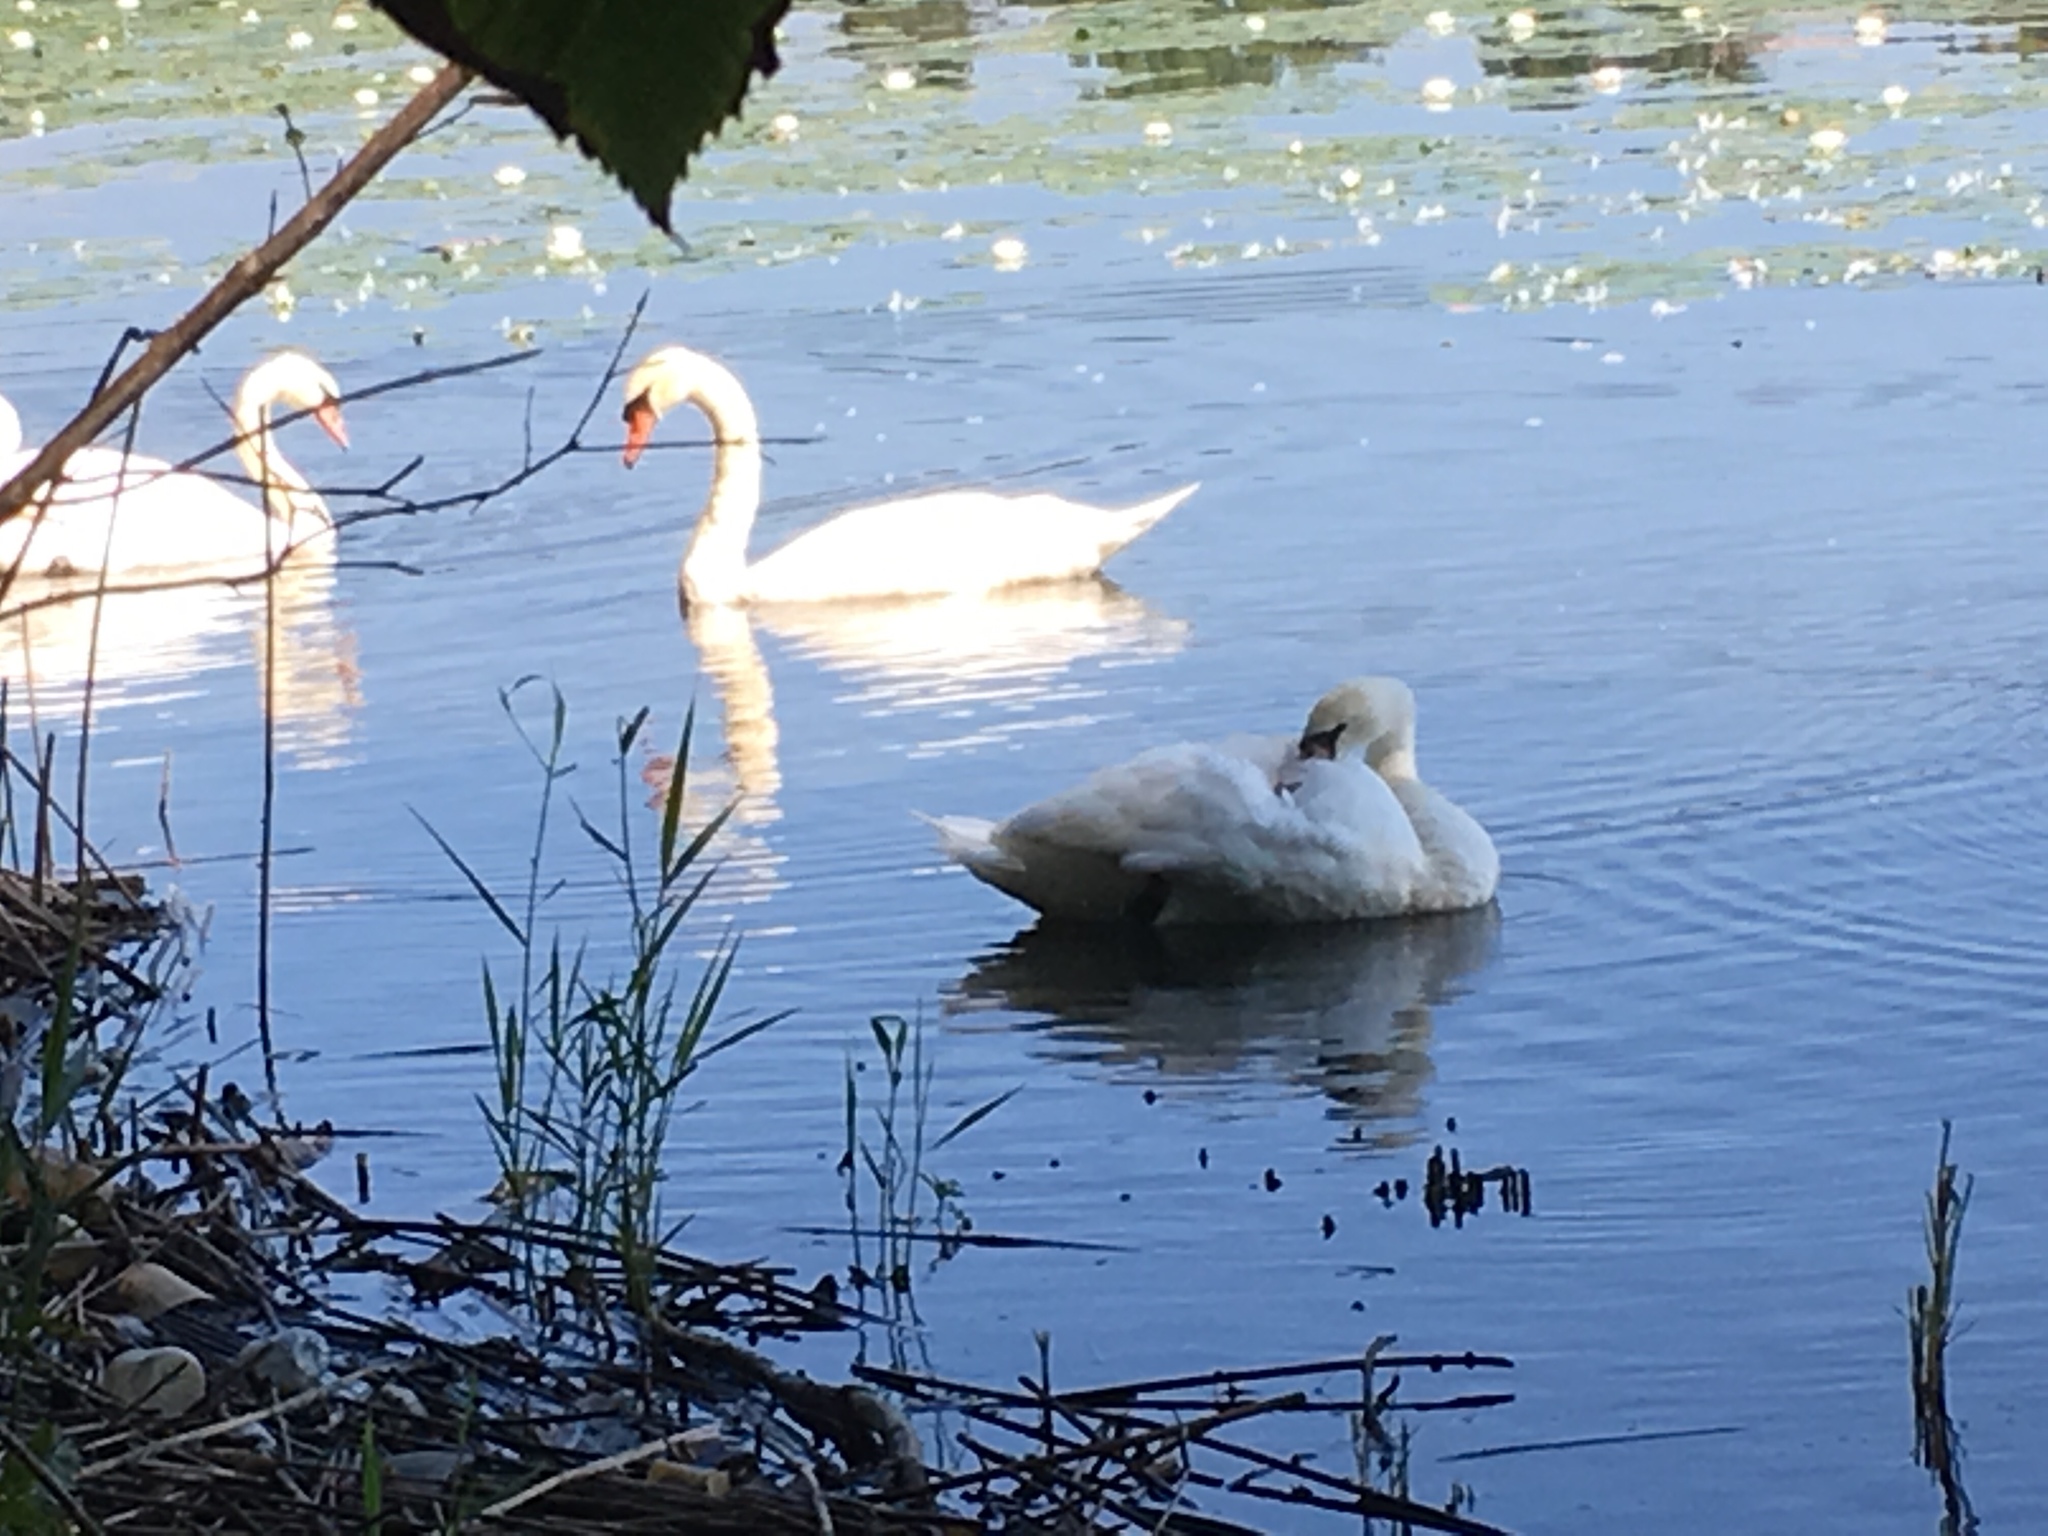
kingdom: Animalia
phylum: Chordata
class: Aves
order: Anseriformes
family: Anatidae
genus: Cygnus
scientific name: Cygnus olor
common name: Mute swan
